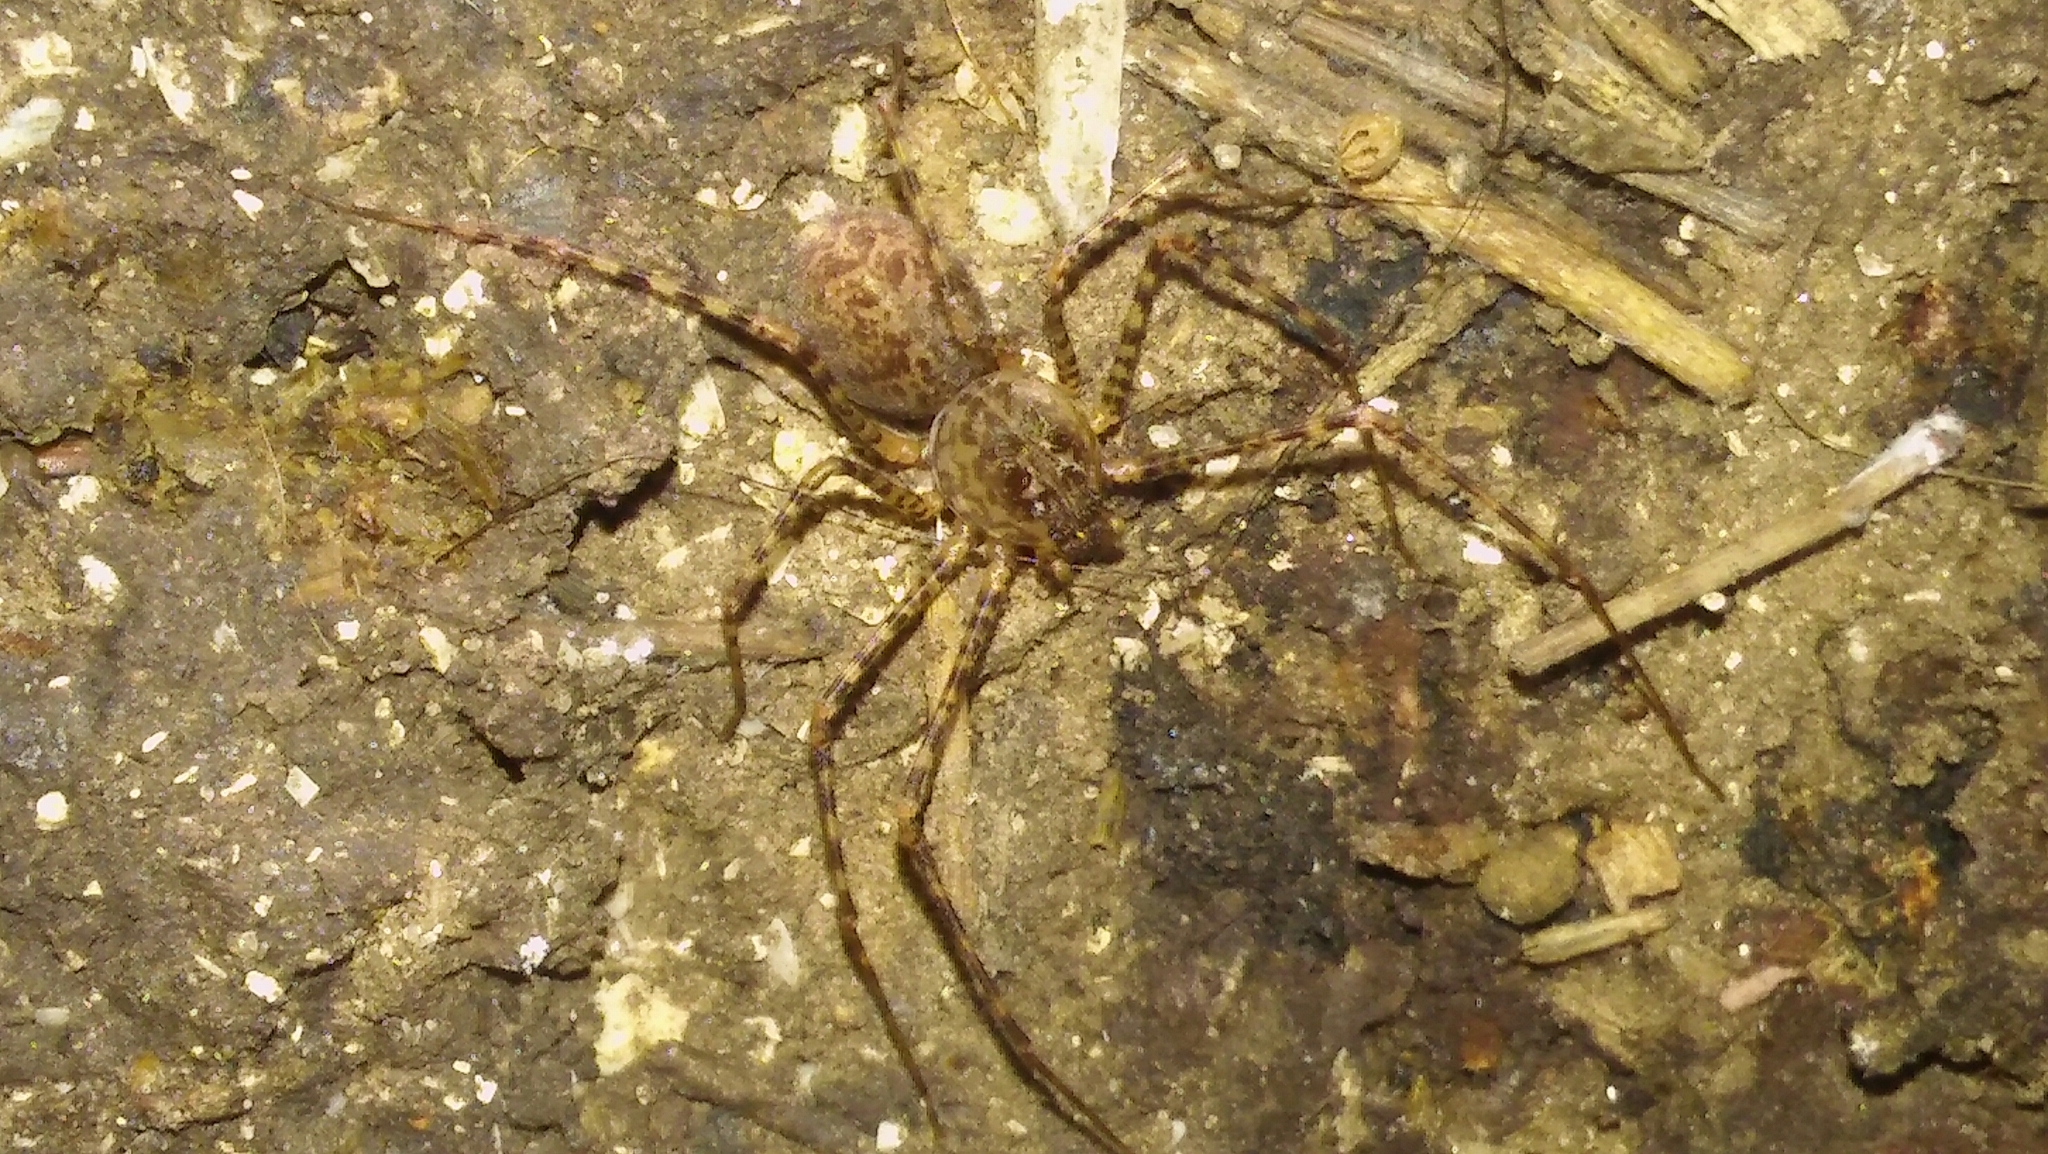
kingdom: Animalia
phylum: Arthropoda
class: Arachnida
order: Araneae
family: Scytodidae
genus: Scytodes
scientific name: Scytodes globula
